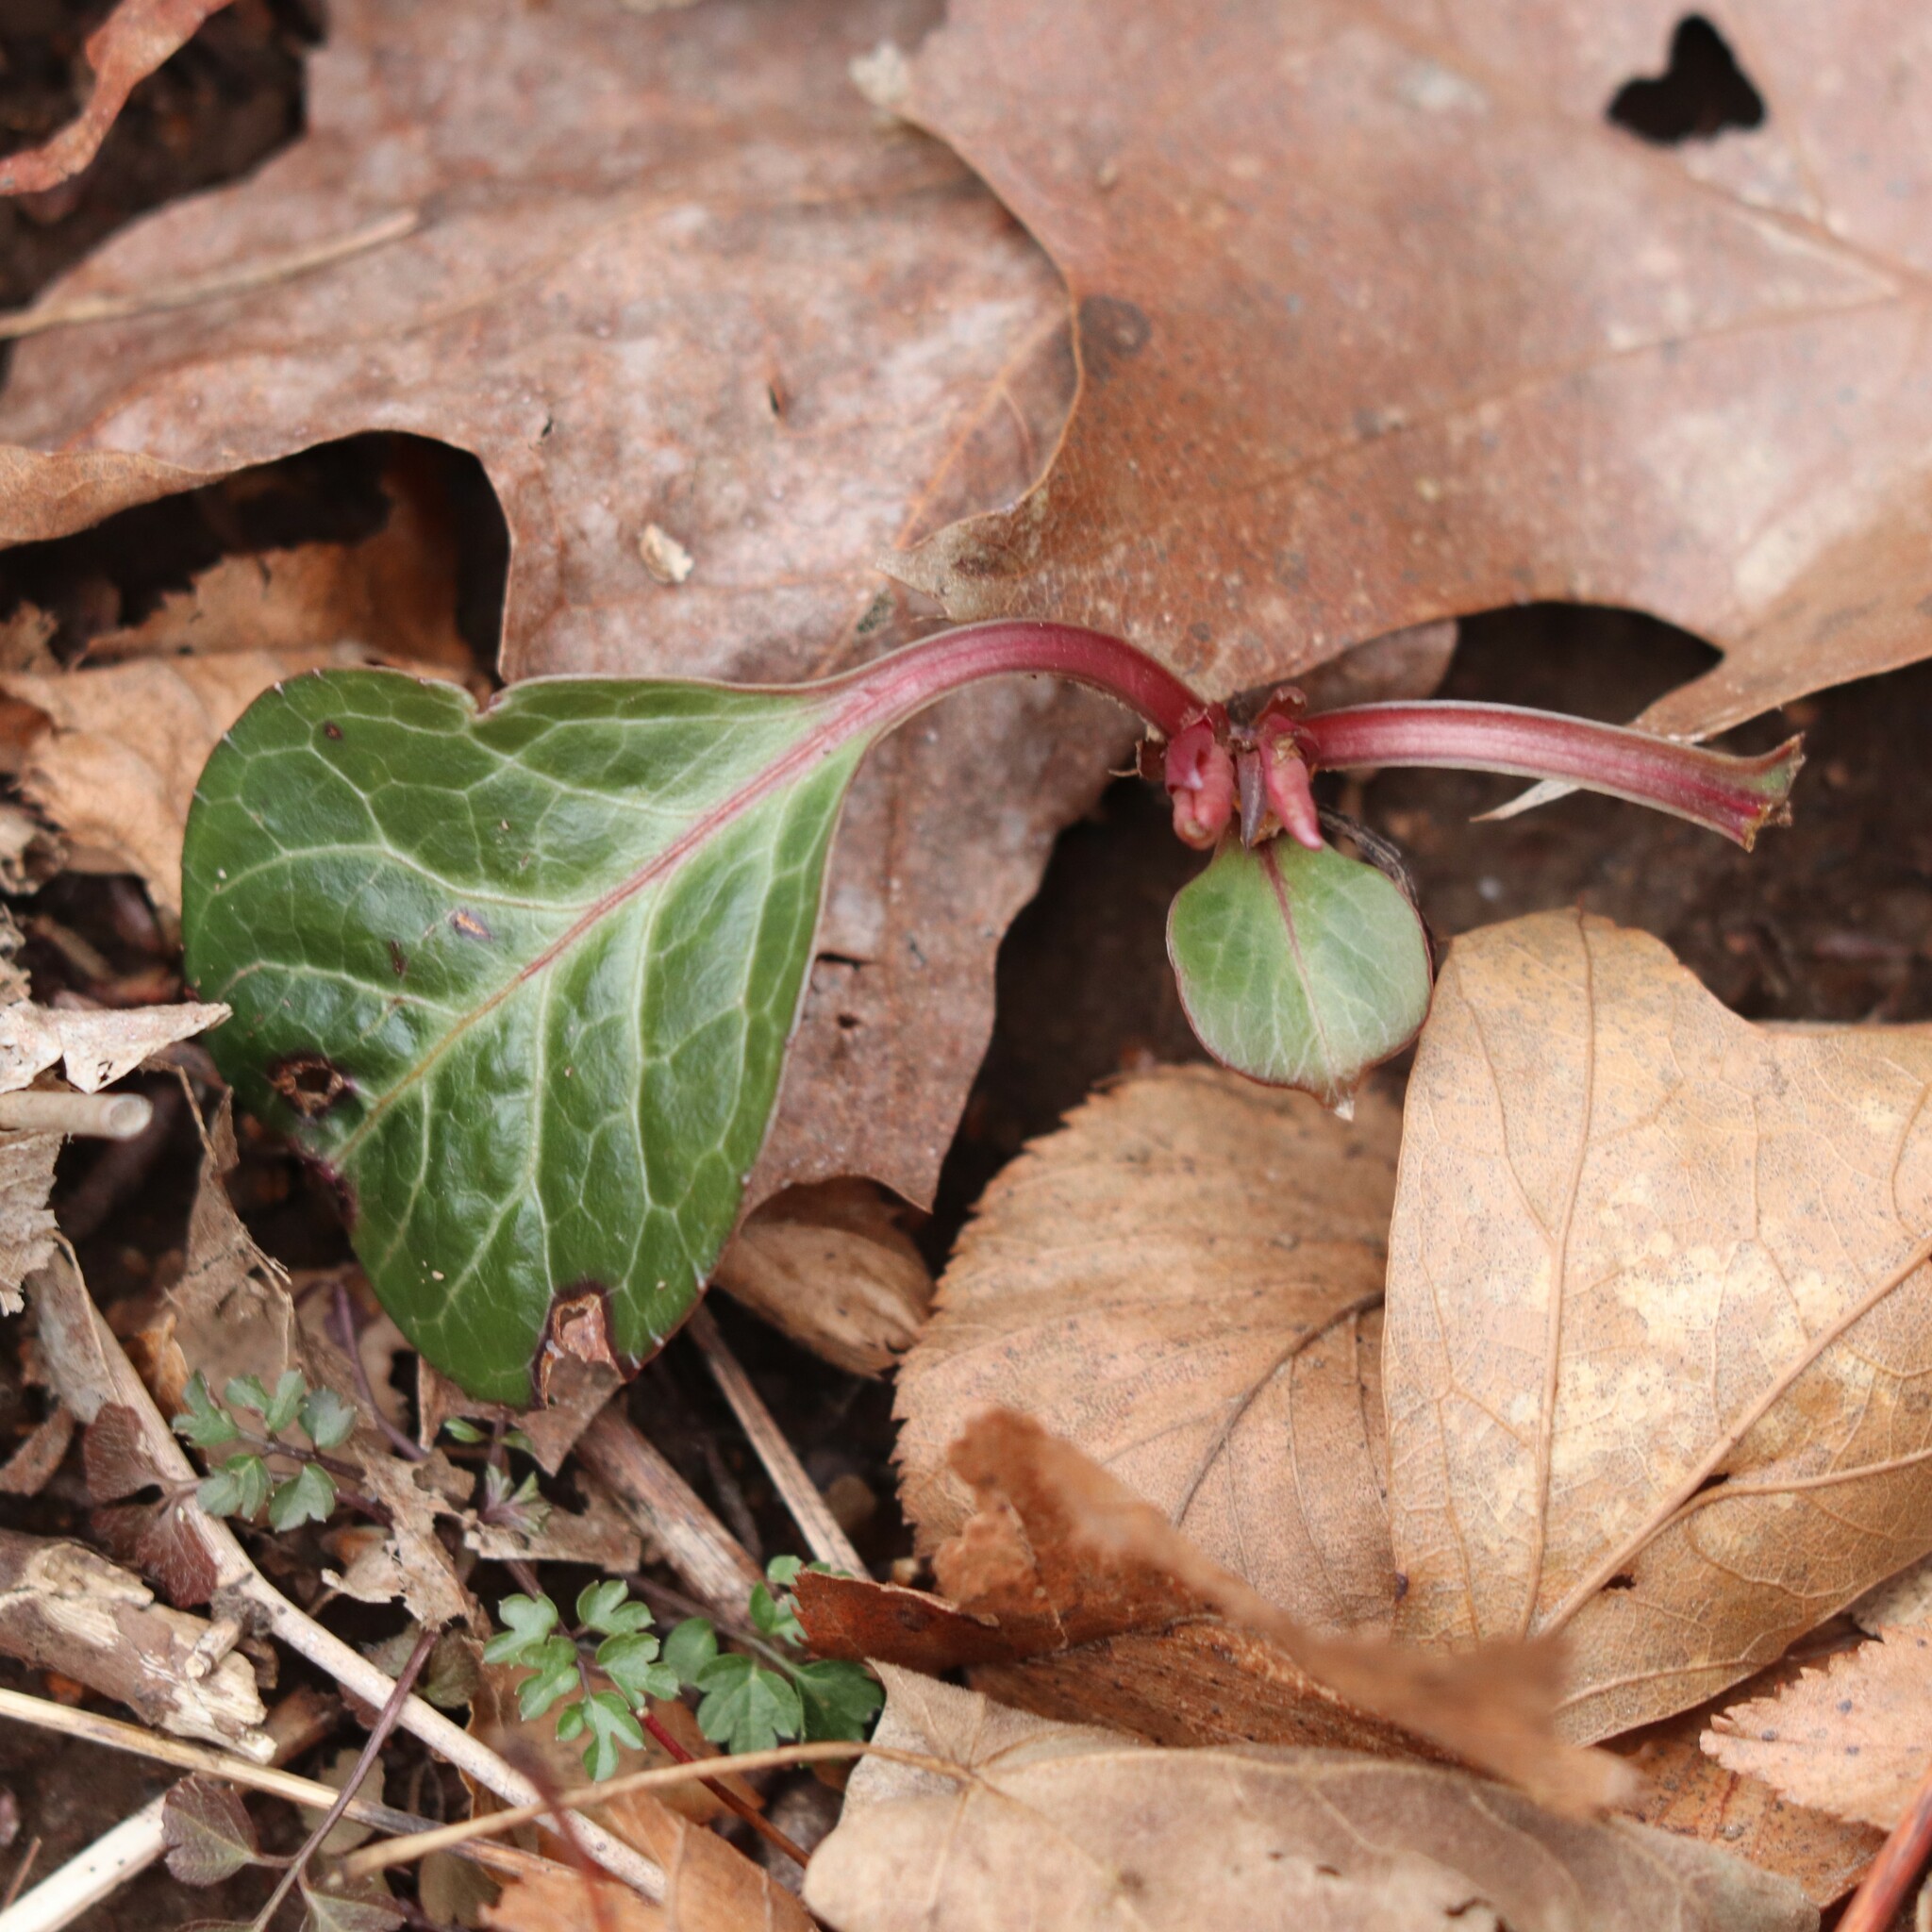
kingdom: Plantae
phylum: Tracheophyta
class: Magnoliopsida
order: Ericales
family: Ericaceae
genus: Pyrola
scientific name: Pyrola americana
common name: American wintergreen
